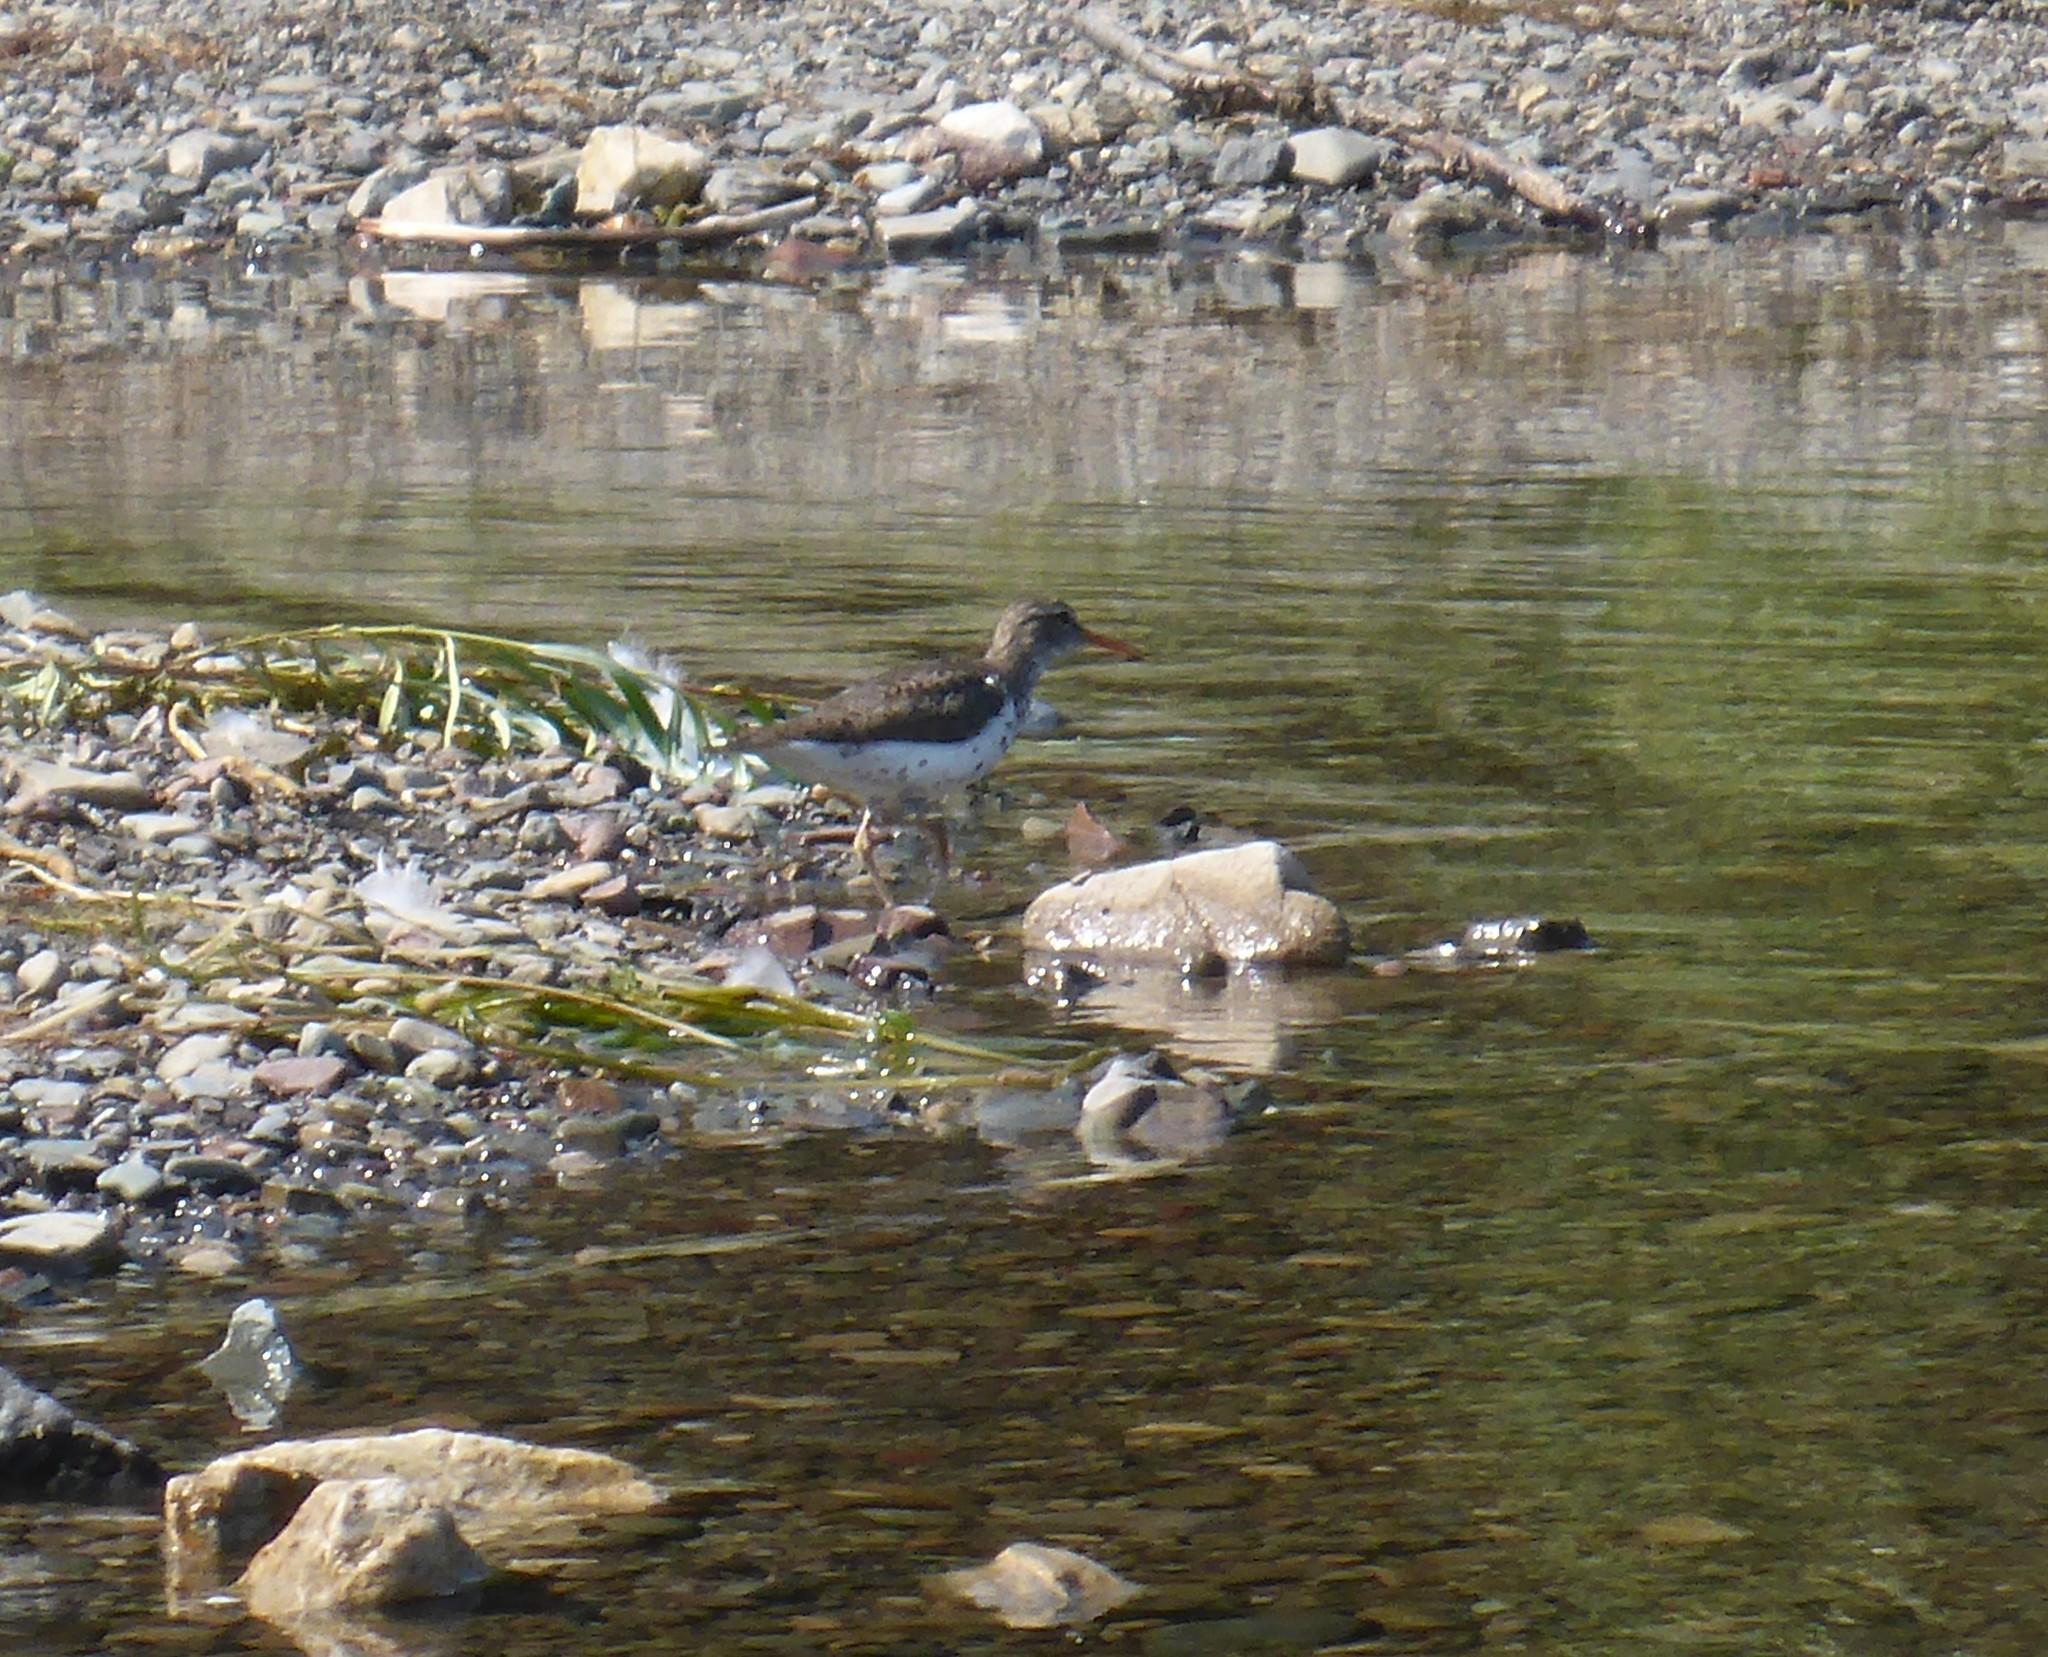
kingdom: Animalia
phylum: Chordata
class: Aves
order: Charadriiformes
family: Scolopacidae
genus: Actitis
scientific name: Actitis macularius
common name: Spotted sandpiper
